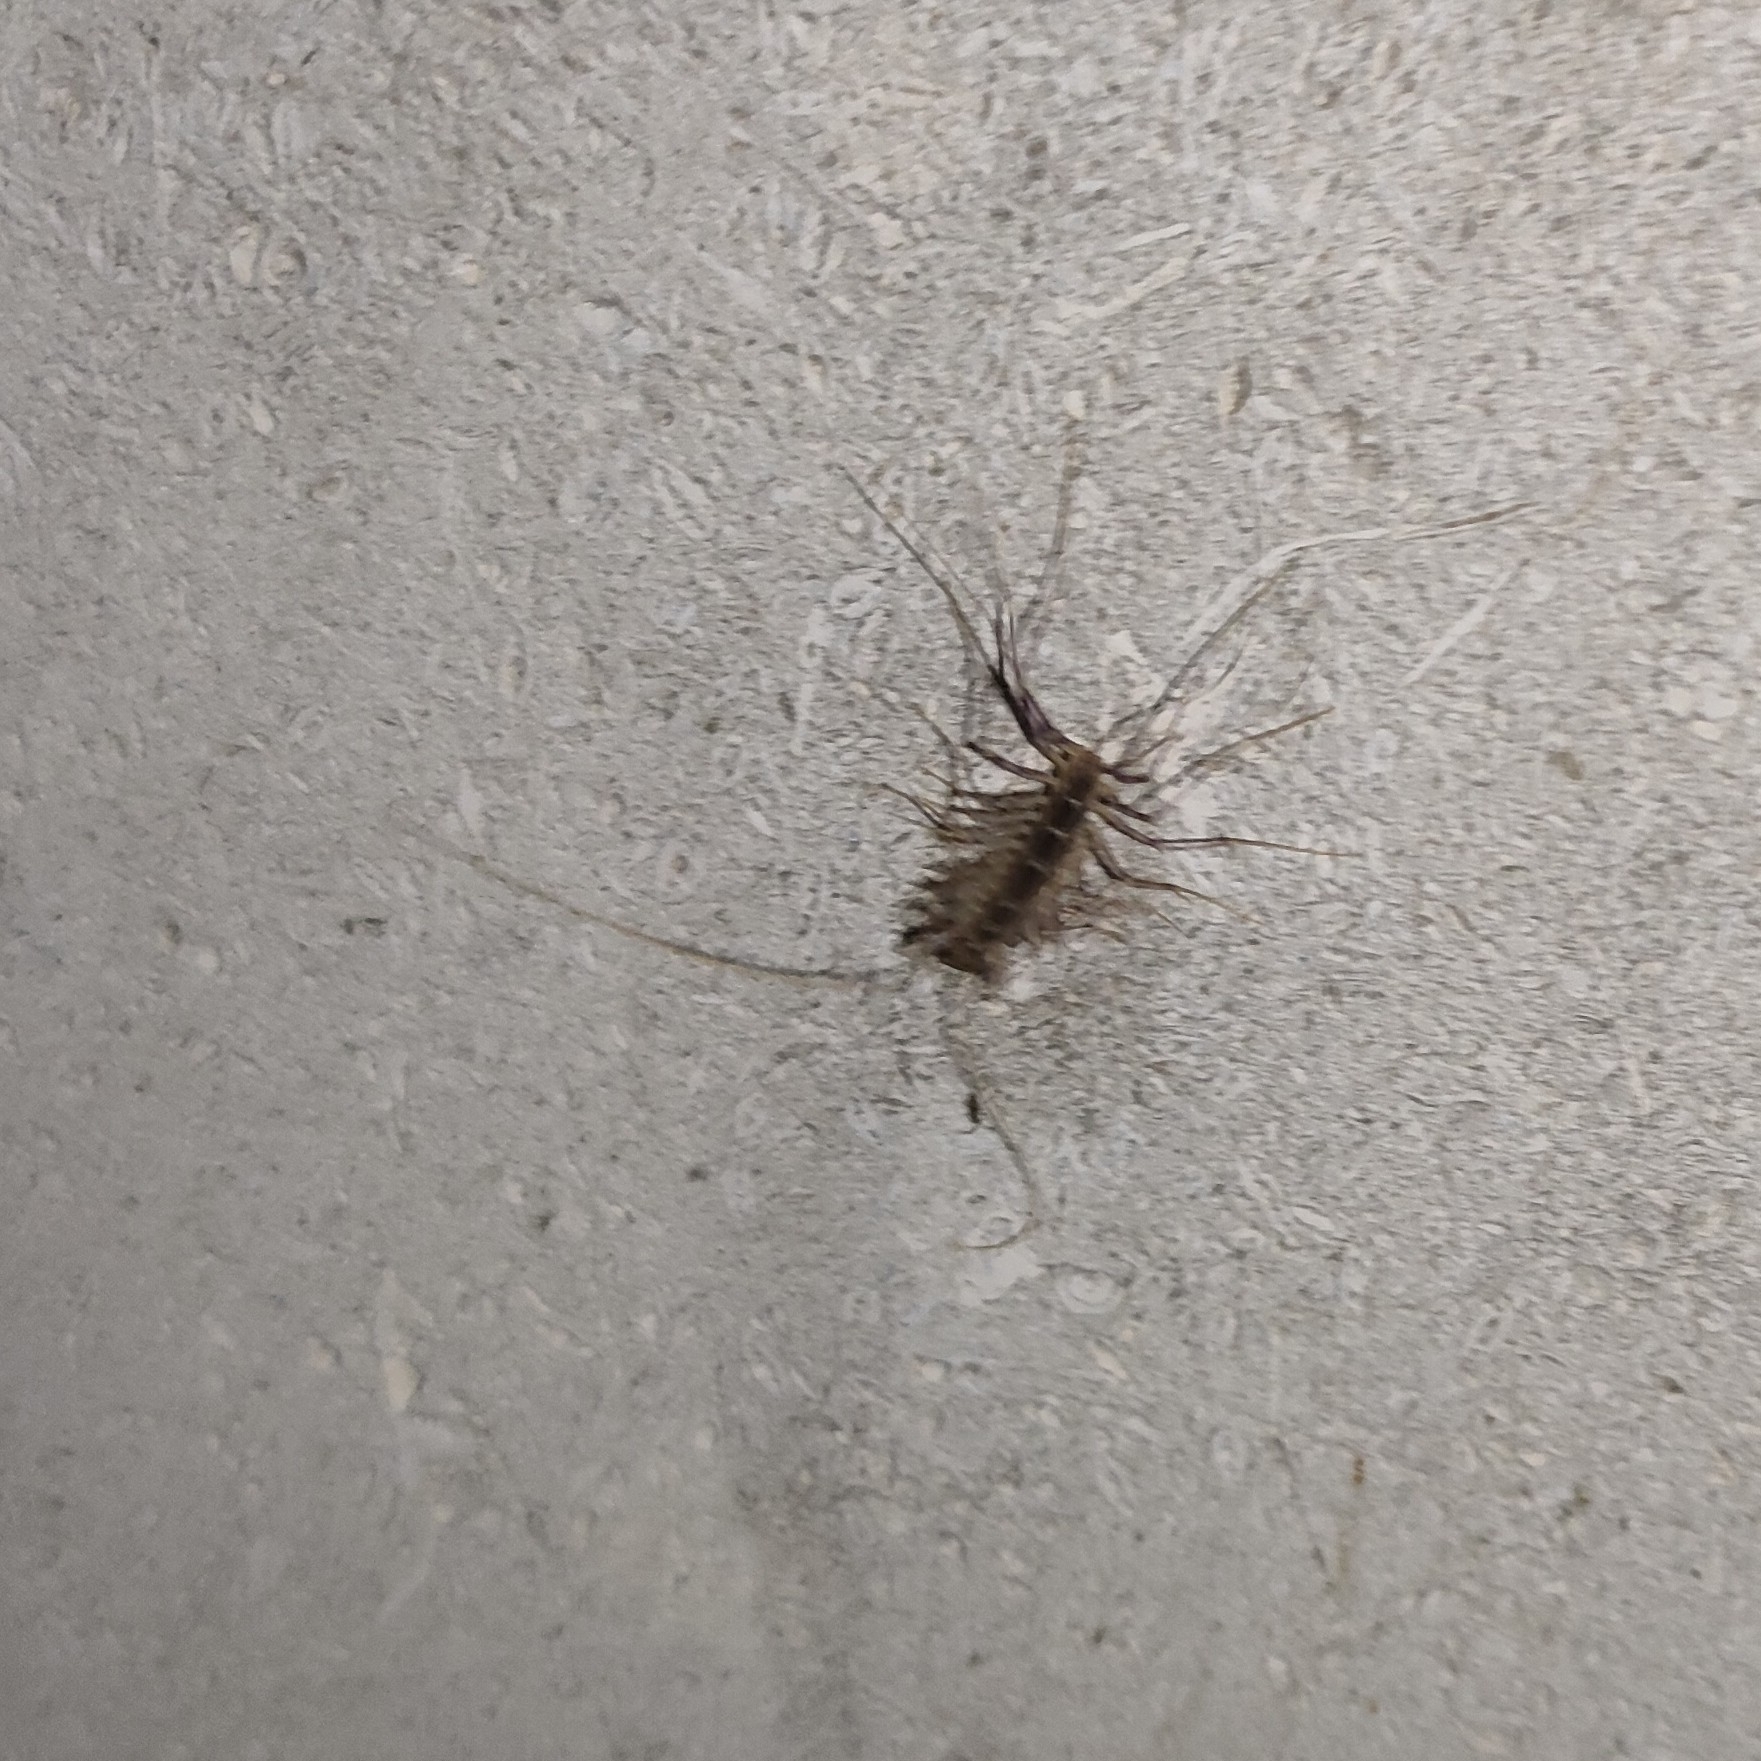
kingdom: Animalia
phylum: Arthropoda
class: Chilopoda
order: Scutigeromorpha
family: Scutigeridae
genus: Scutigera
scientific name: Scutigera coleoptrata
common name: House centipede
